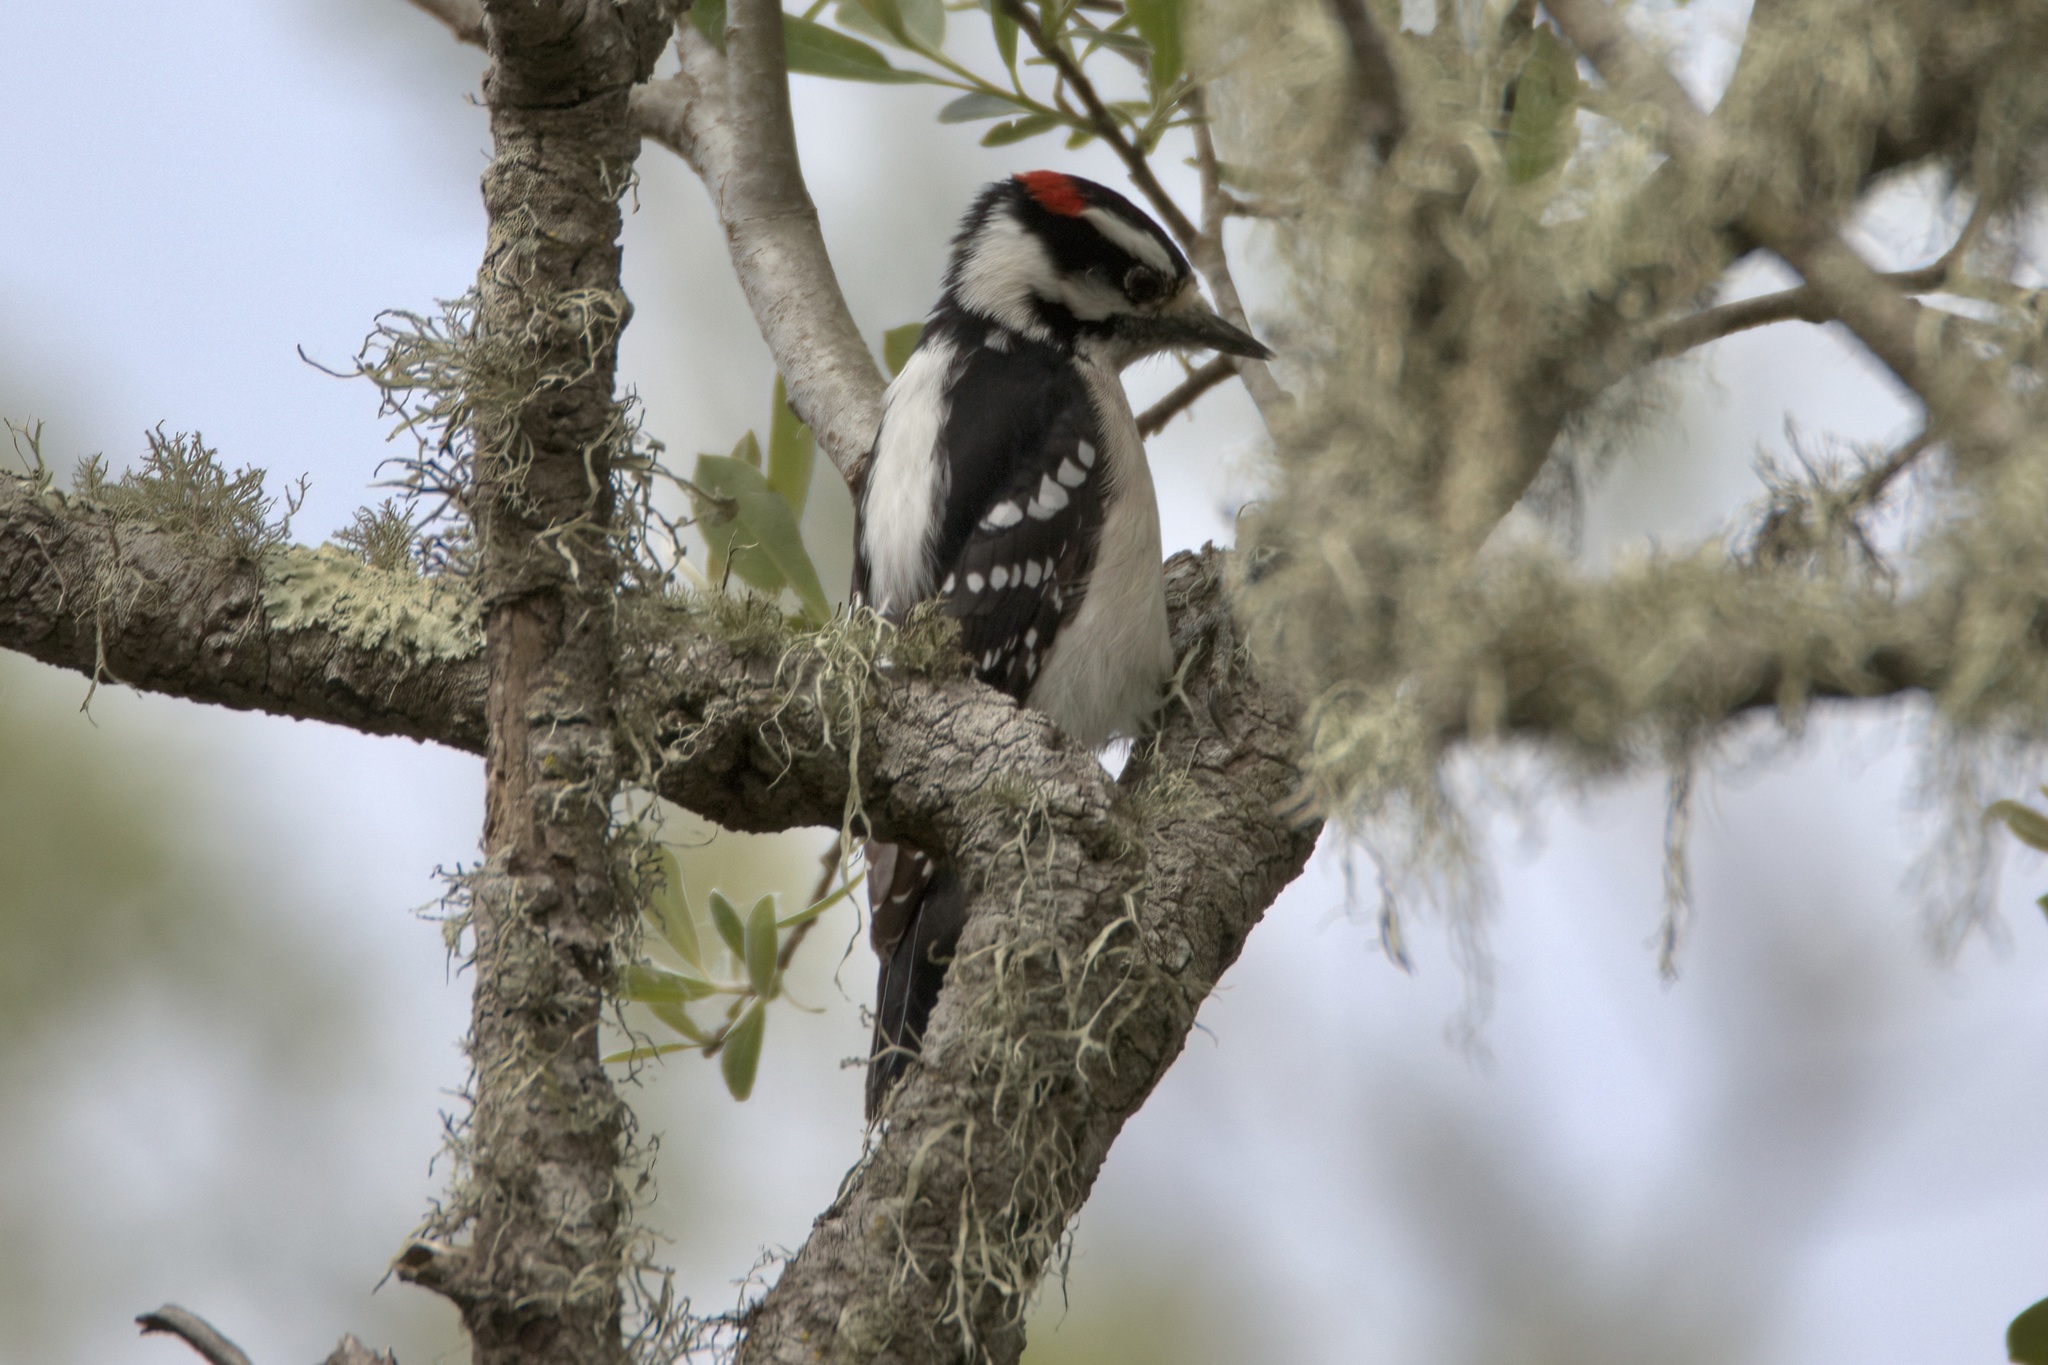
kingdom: Animalia
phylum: Chordata
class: Aves
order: Piciformes
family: Picidae
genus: Dryobates
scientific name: Dryobates pubescens
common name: Downy woodpecker
